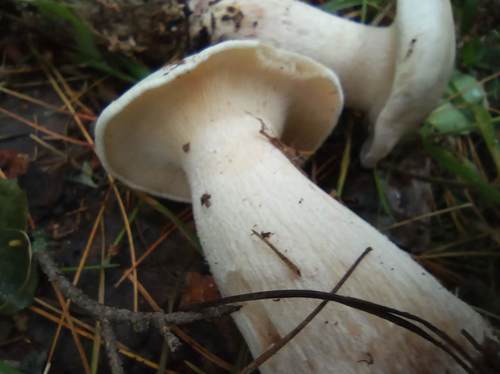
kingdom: Fungi
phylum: Basidiomycota
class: Agaricomycetes
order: Agaricales
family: Entolomataceae
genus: Clitopilus
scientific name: Clitopilus prunulus
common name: The miller
